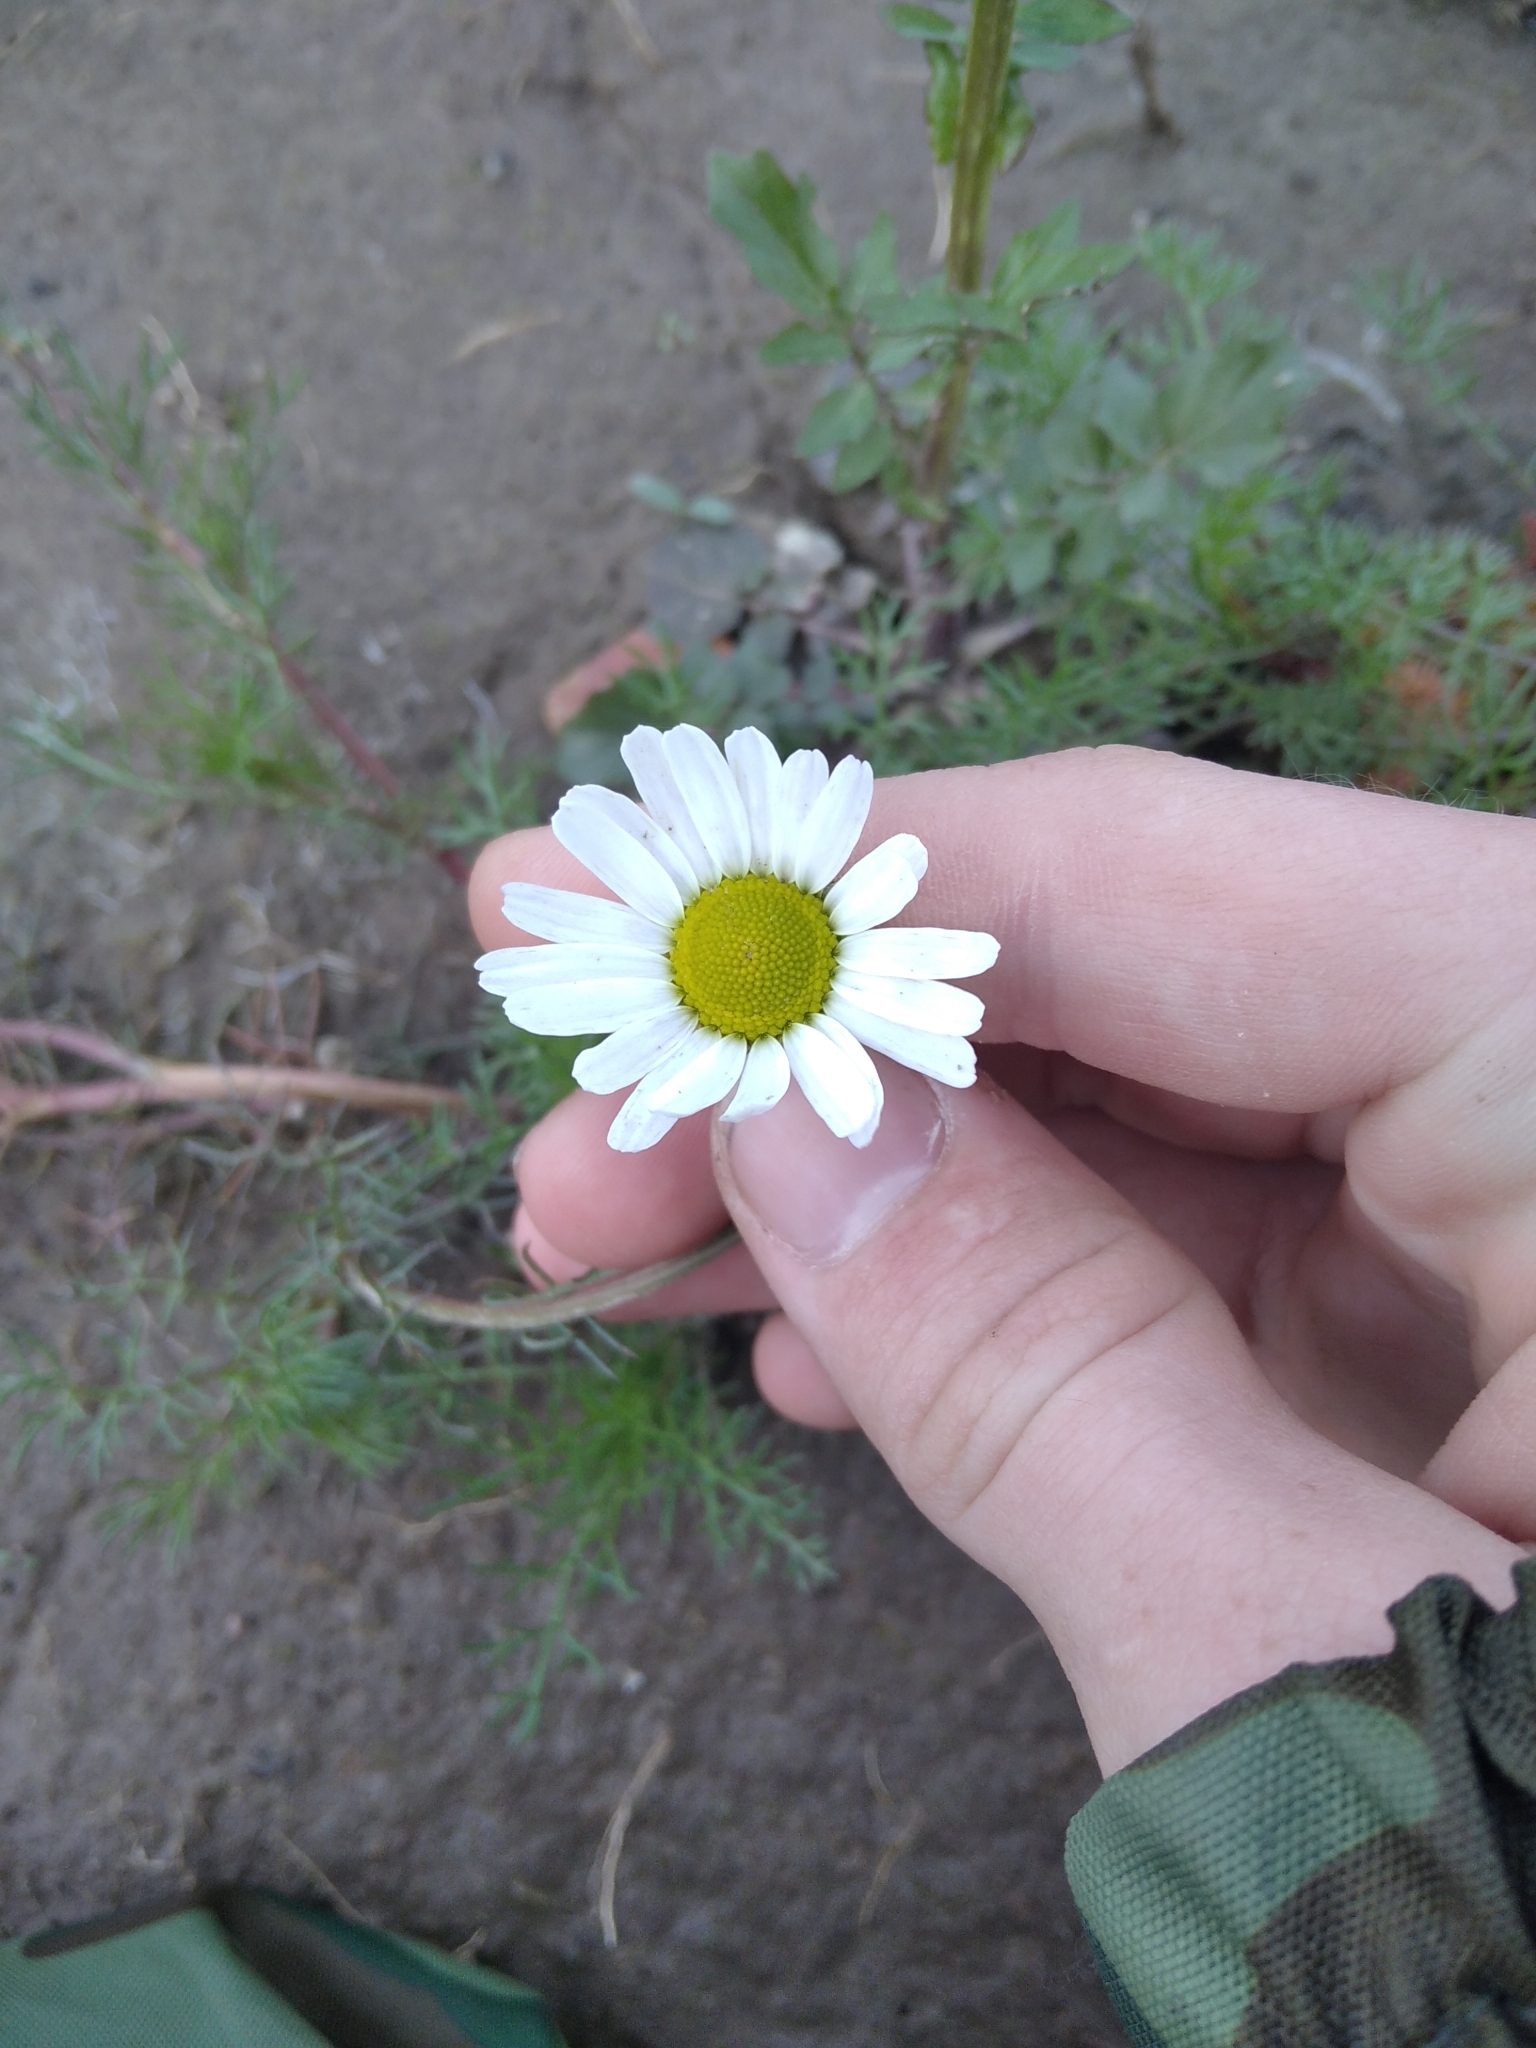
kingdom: Plantae
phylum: Tracheophyta
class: Magnoliopsida
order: Asterales
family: Asteraceae
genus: Tripleurospermum
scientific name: Tripleurospermum inodorum
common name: Scentless mayweed
